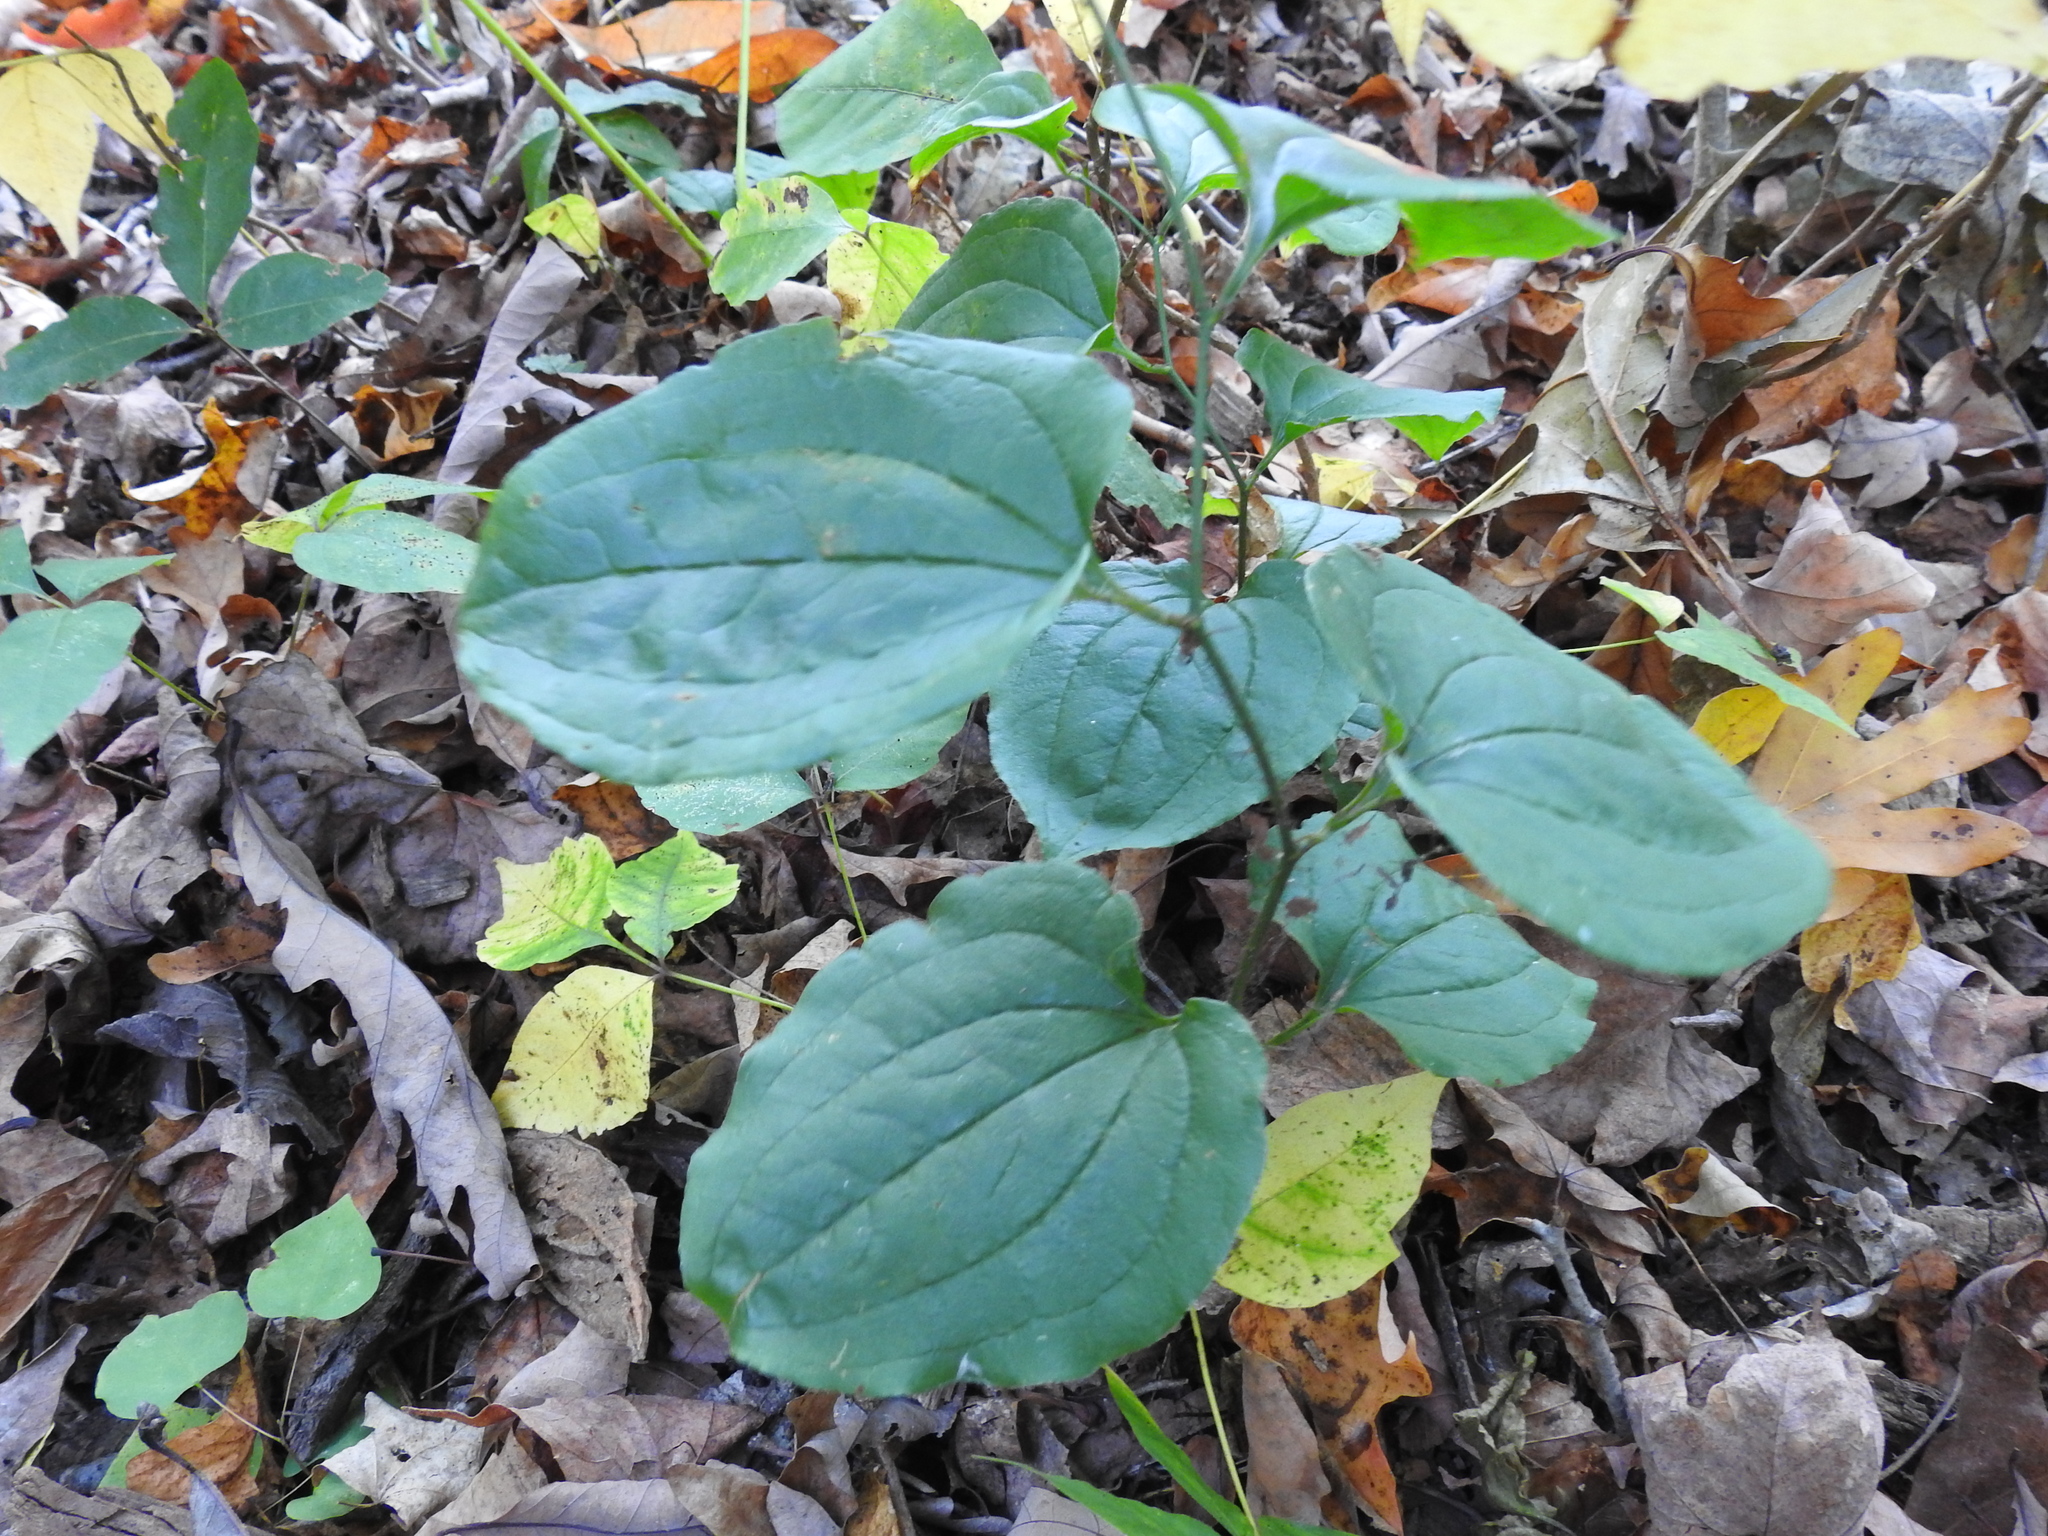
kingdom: Plantae
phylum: Tracheophyta
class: Liliopsida
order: Liliales
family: Smilacaceae
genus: Smilax
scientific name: Smilax tamnoides
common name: Hellfetter
